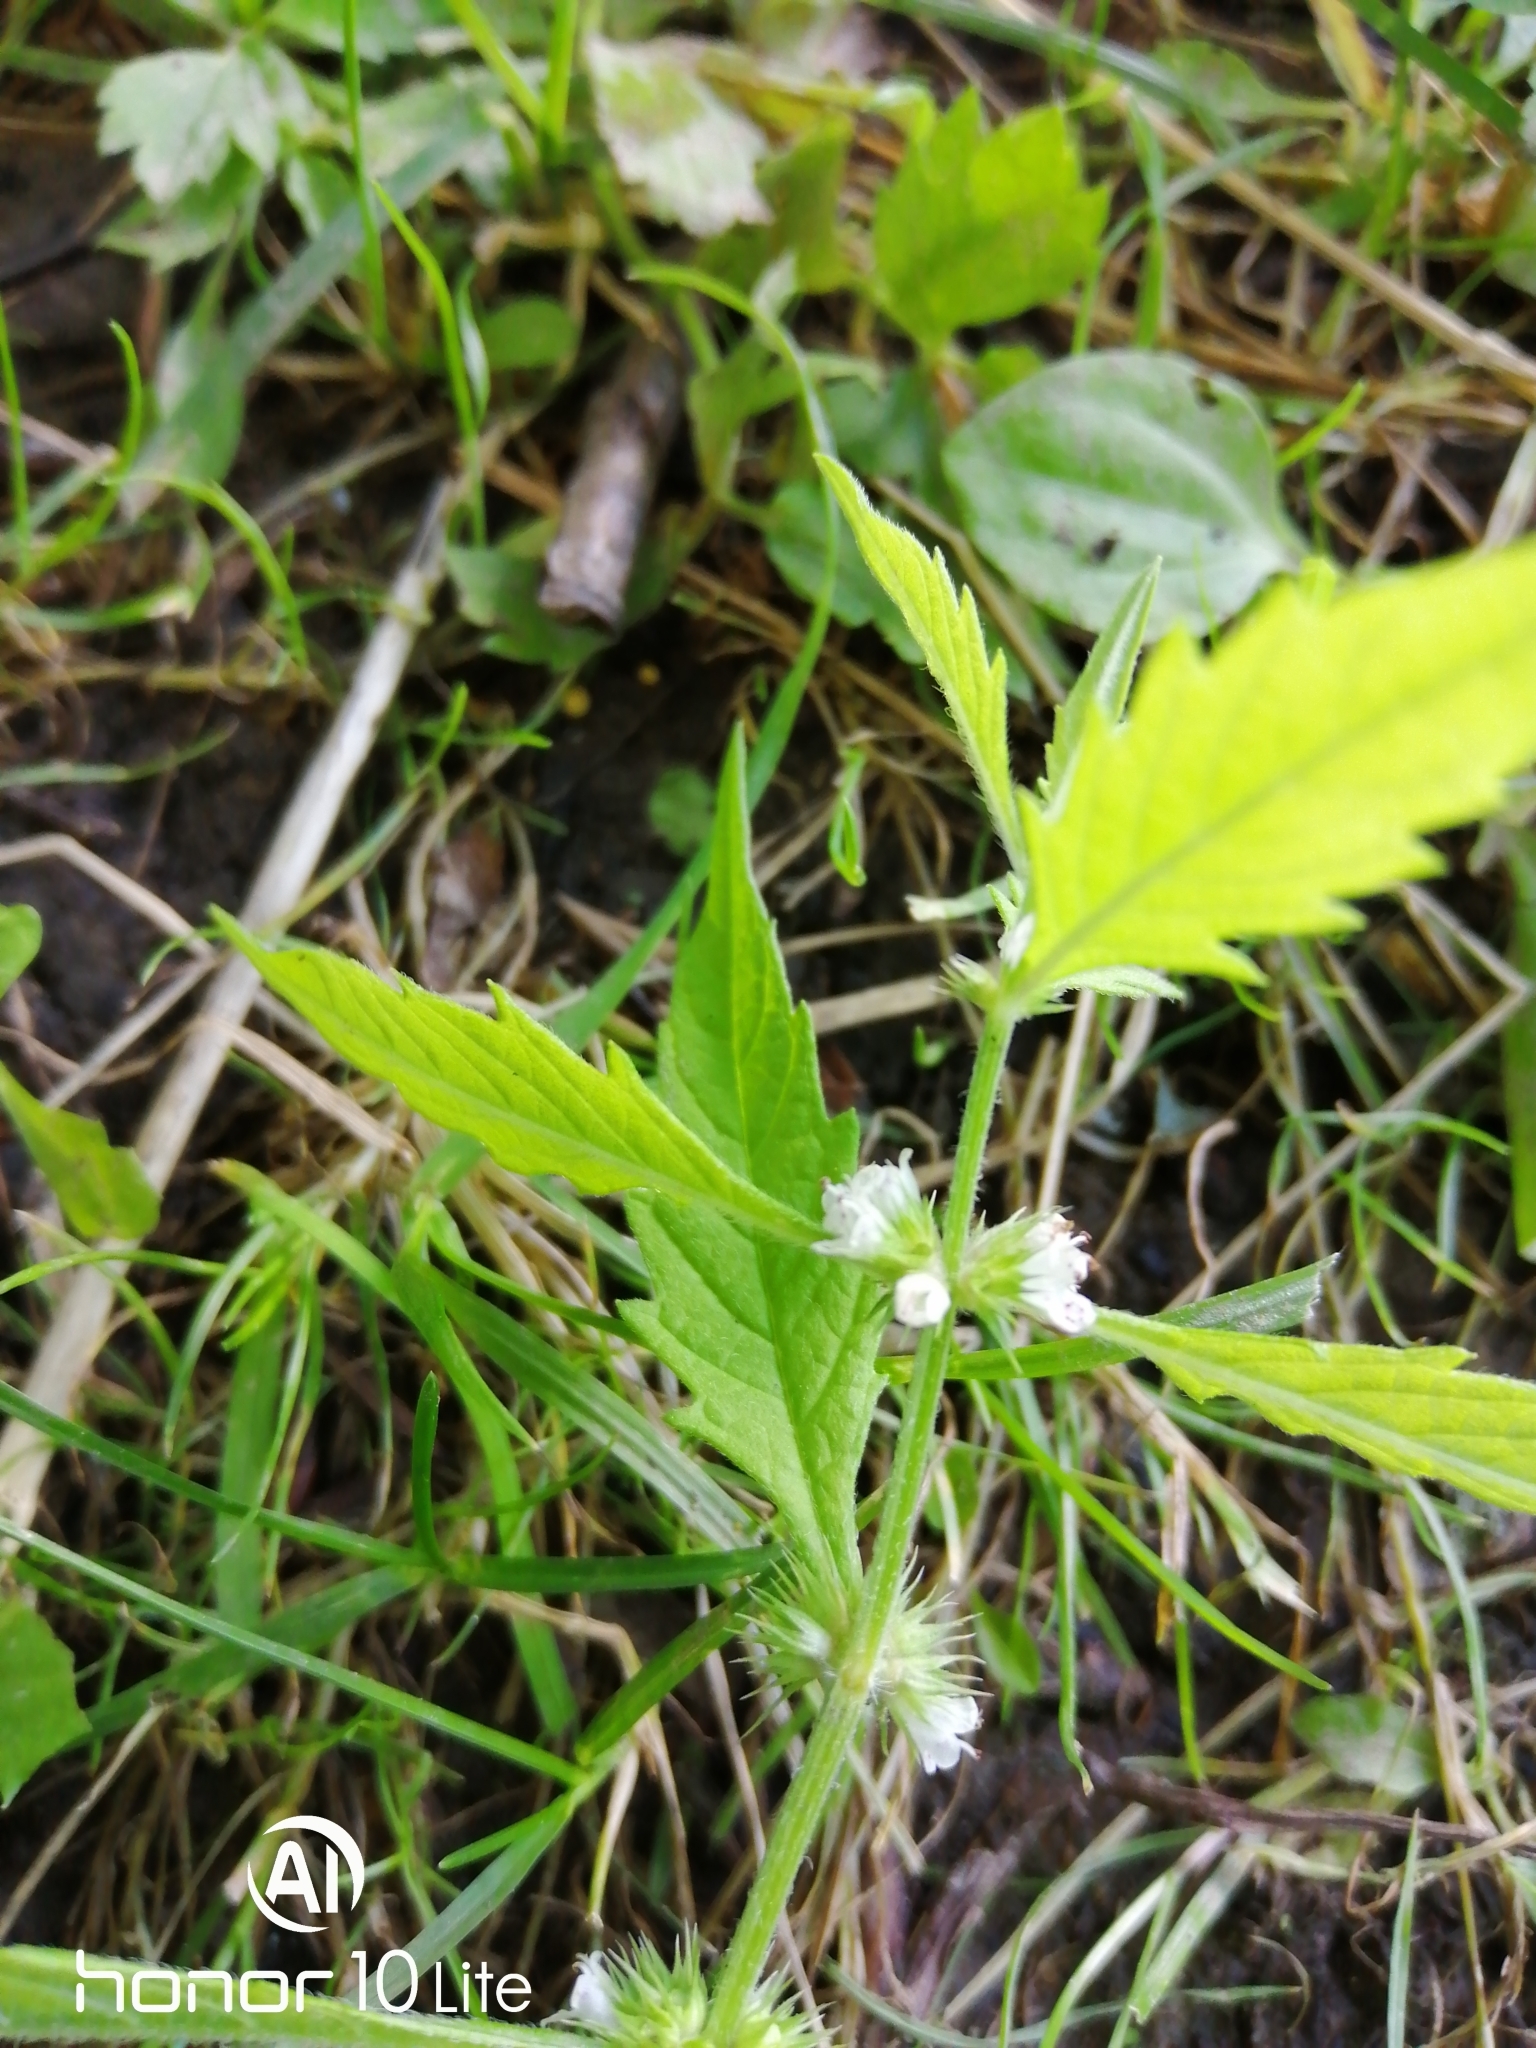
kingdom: Plantae
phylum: Tracheophyta
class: Magnoliopsida
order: Lamiales
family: Lamiaceae
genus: Lycopus
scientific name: Lycopus europaeus
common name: European bugleweed
